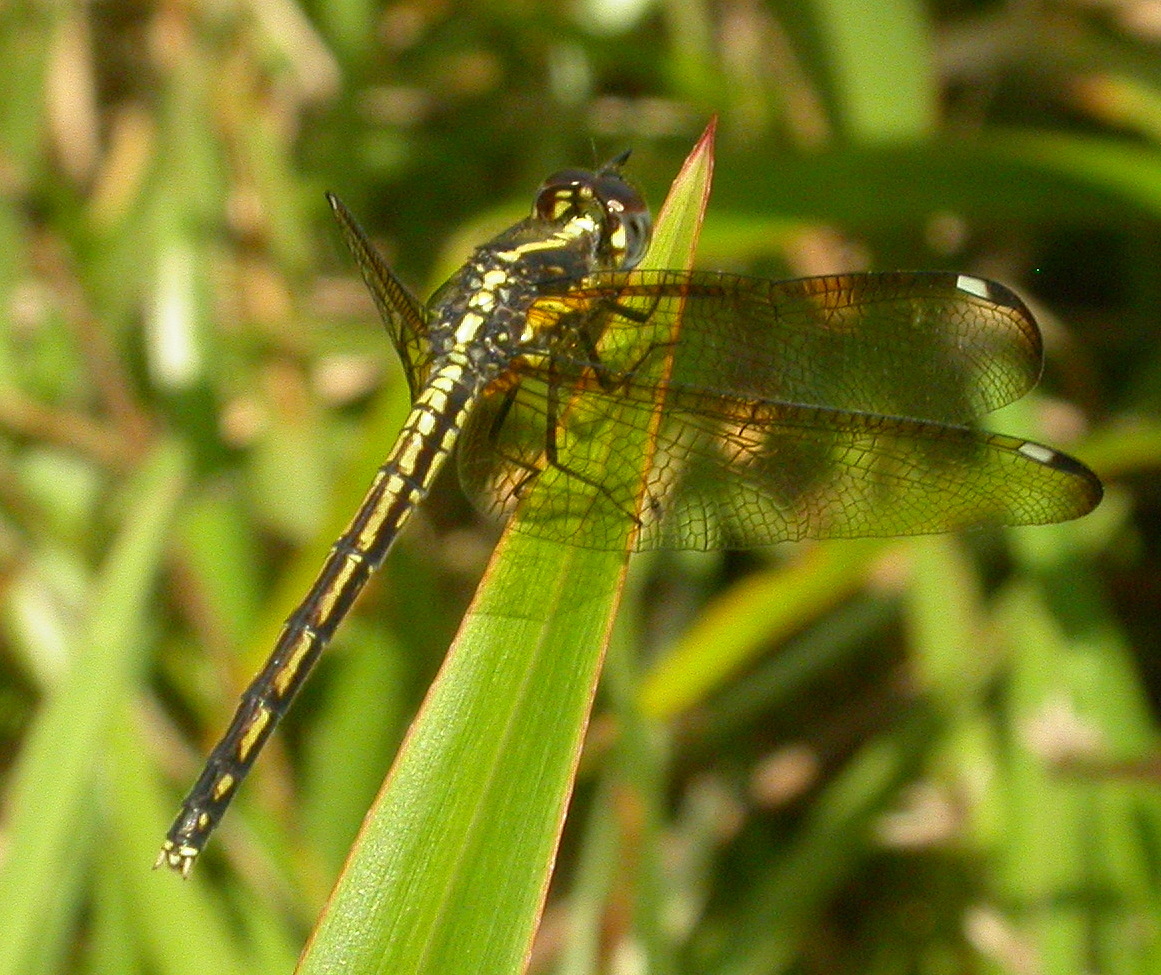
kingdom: Animalia
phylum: Arthropoda
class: Insecta
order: Odonata
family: Libellulidae
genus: Hemistigma
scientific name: Hemistigma affine
